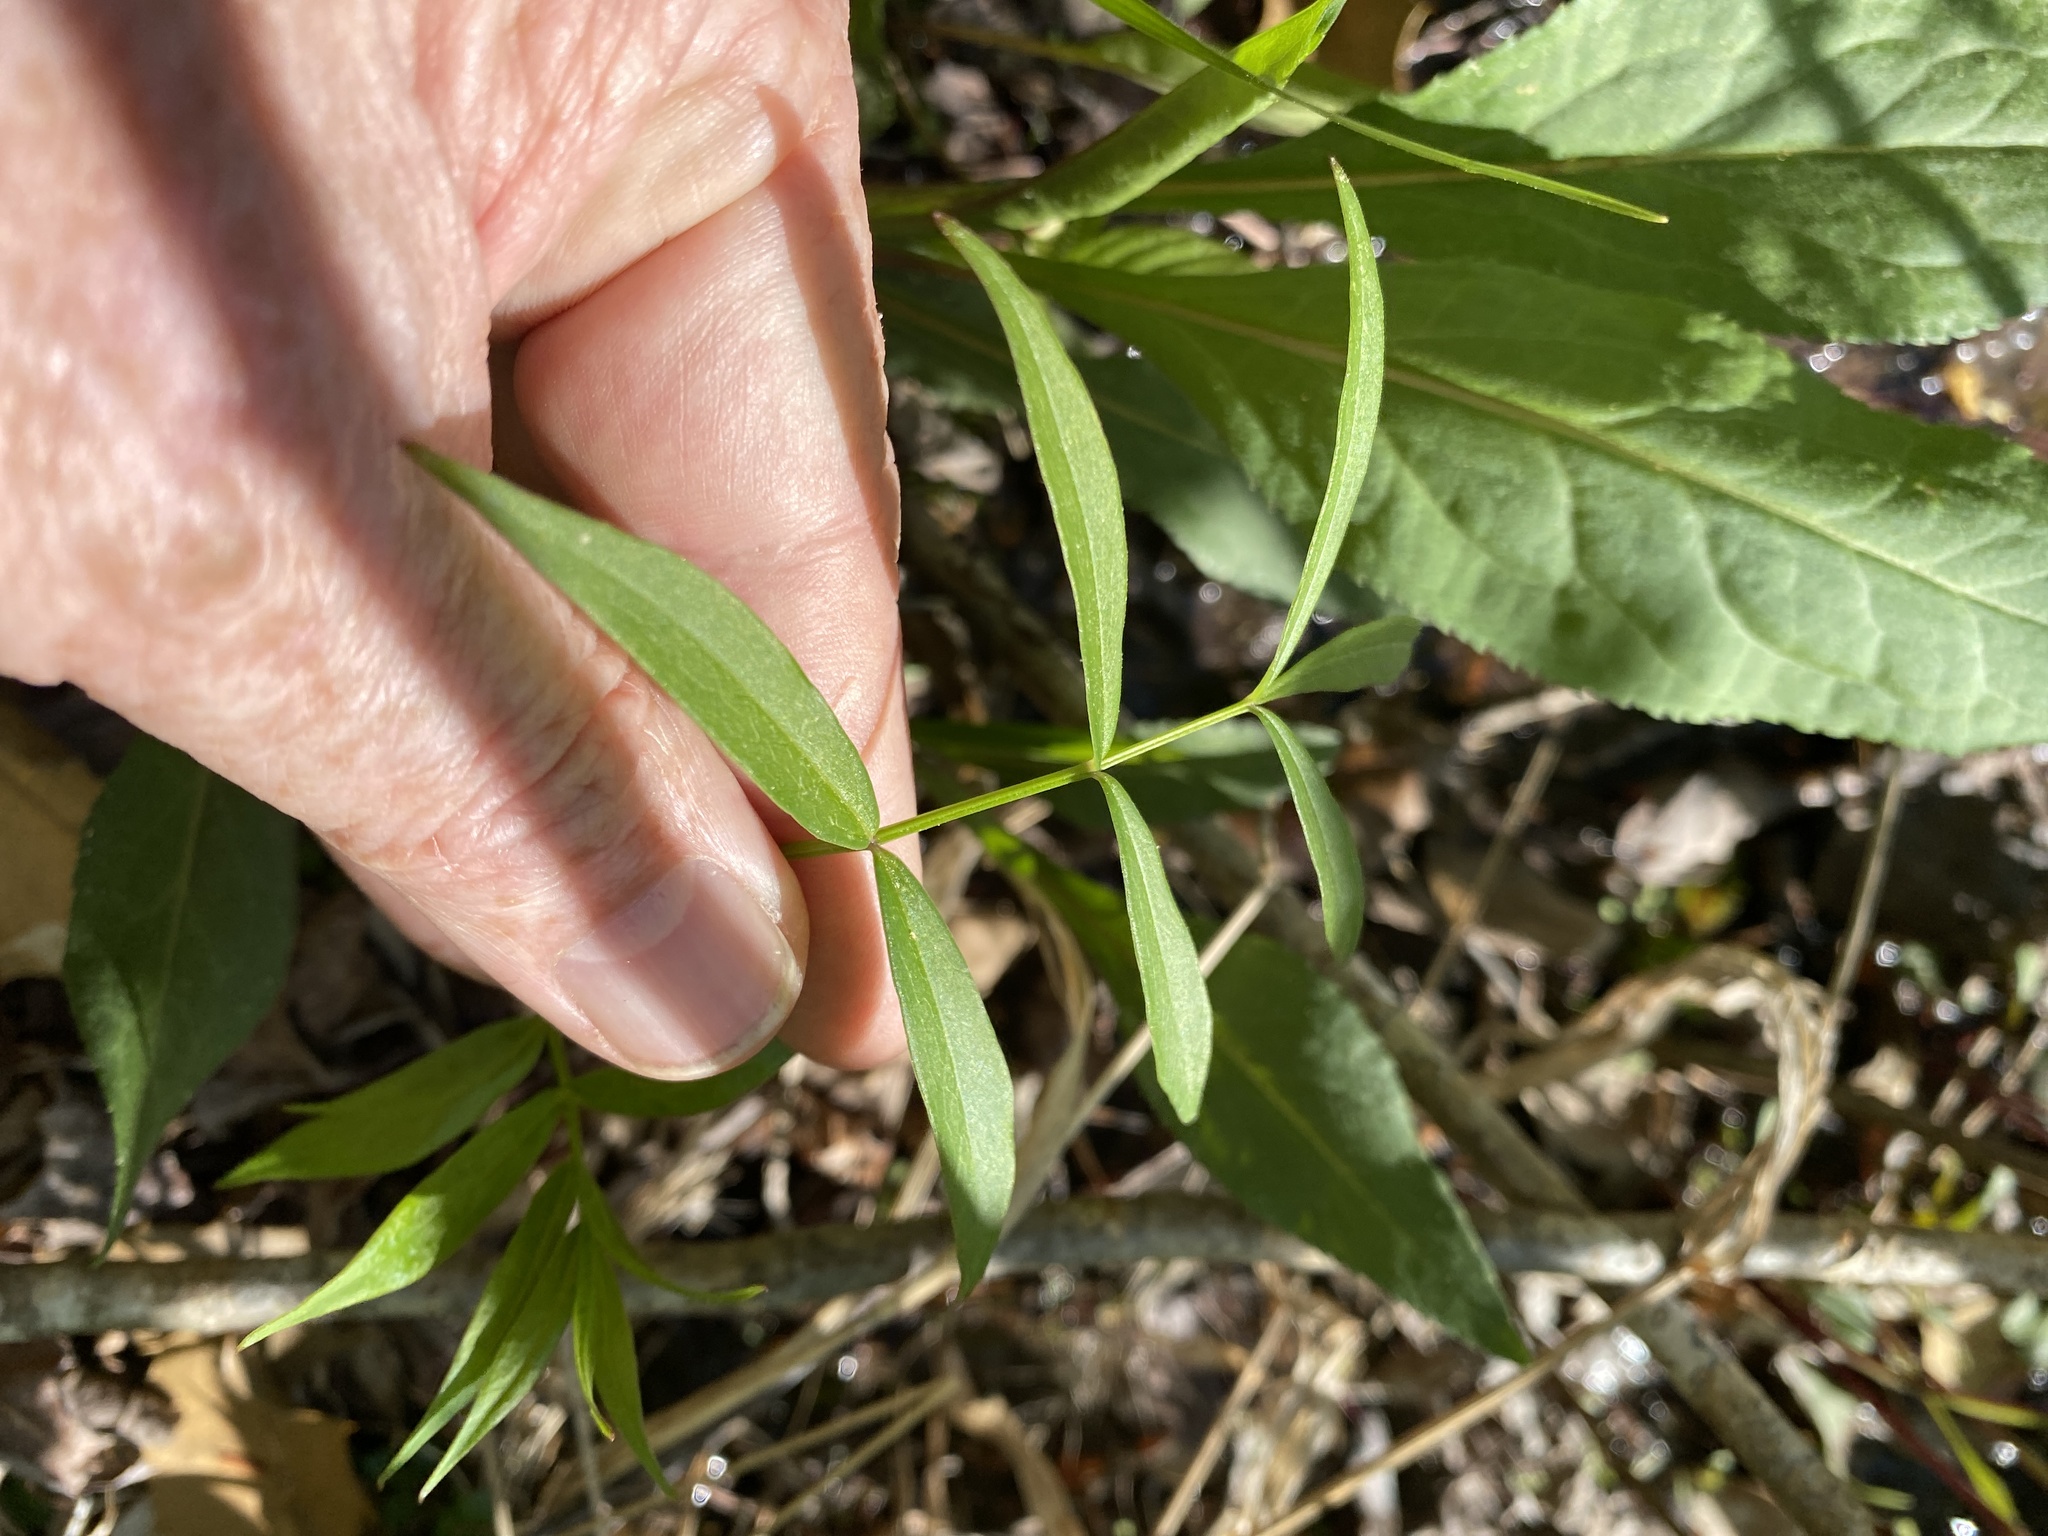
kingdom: Plantae
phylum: Tracheophyta
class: Magnoliopsida
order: Apiales
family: Apiaceae
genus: Oxypolis
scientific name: Oxypolis rigidior
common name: Cowbane
